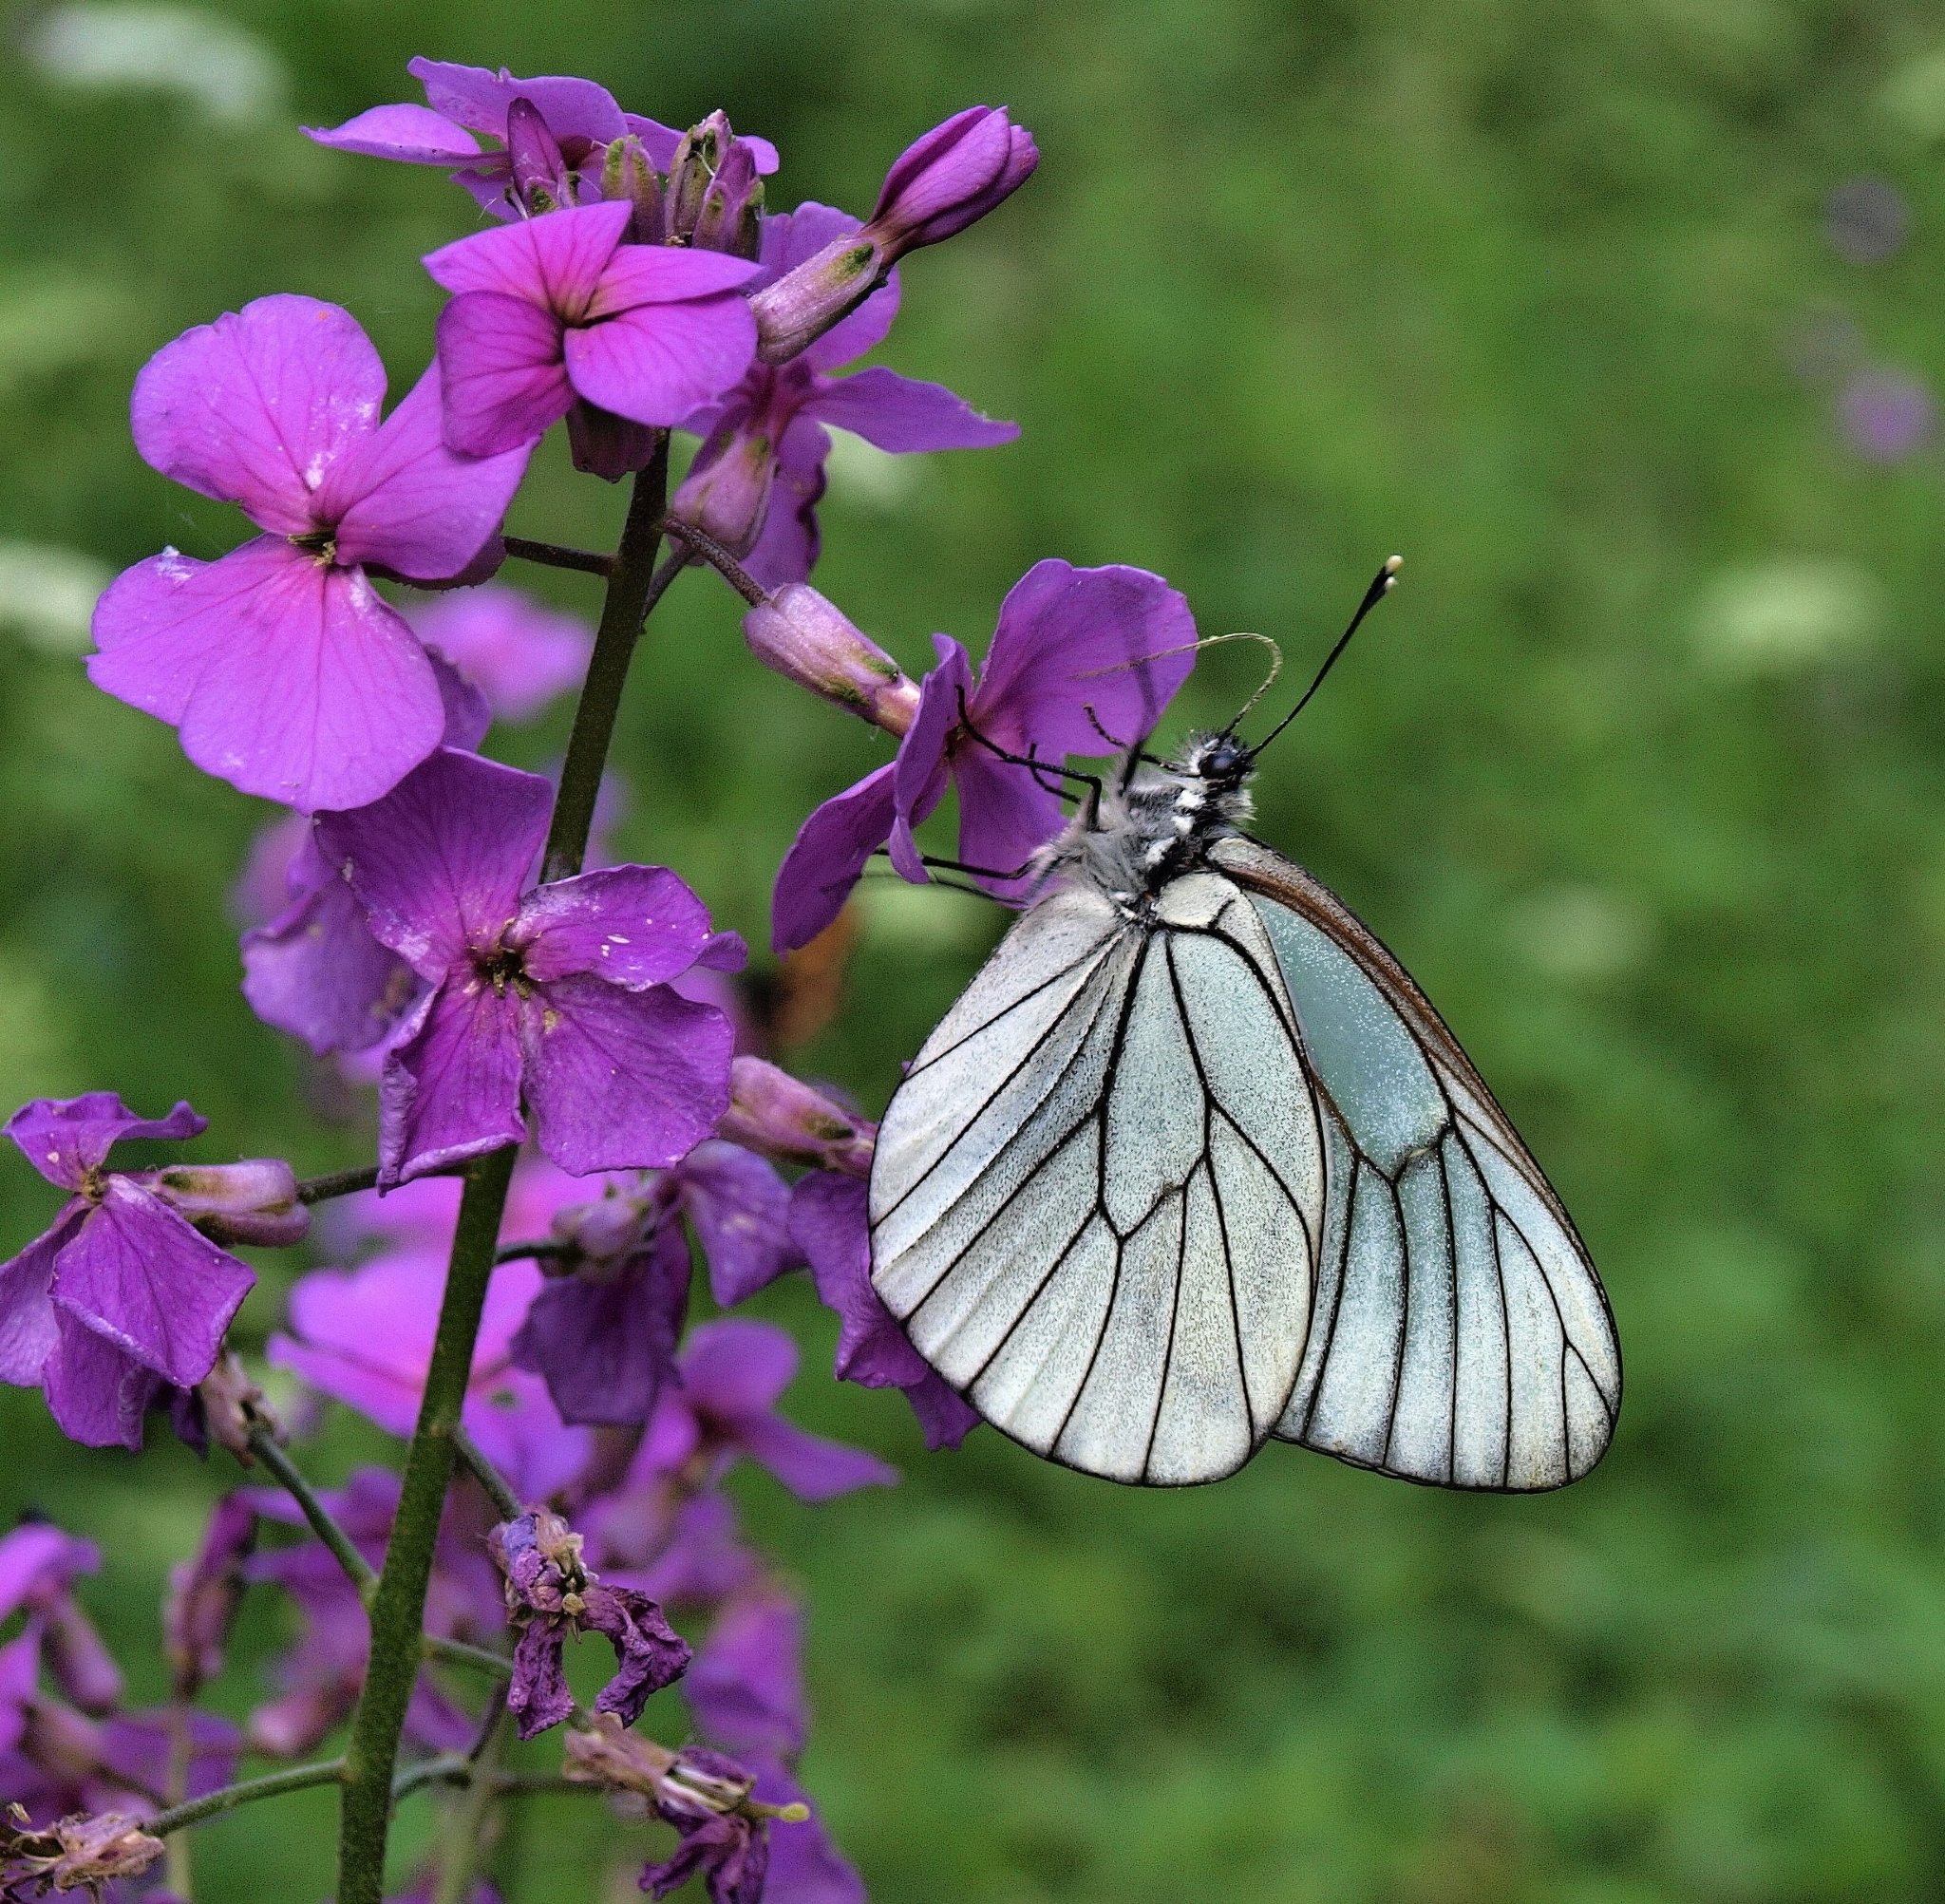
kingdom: Animalia
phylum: Arthropoda
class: Insecta
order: Lepidoptera
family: Pieridae
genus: Aporia
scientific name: Aporia crataegi
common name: Black-veined white
